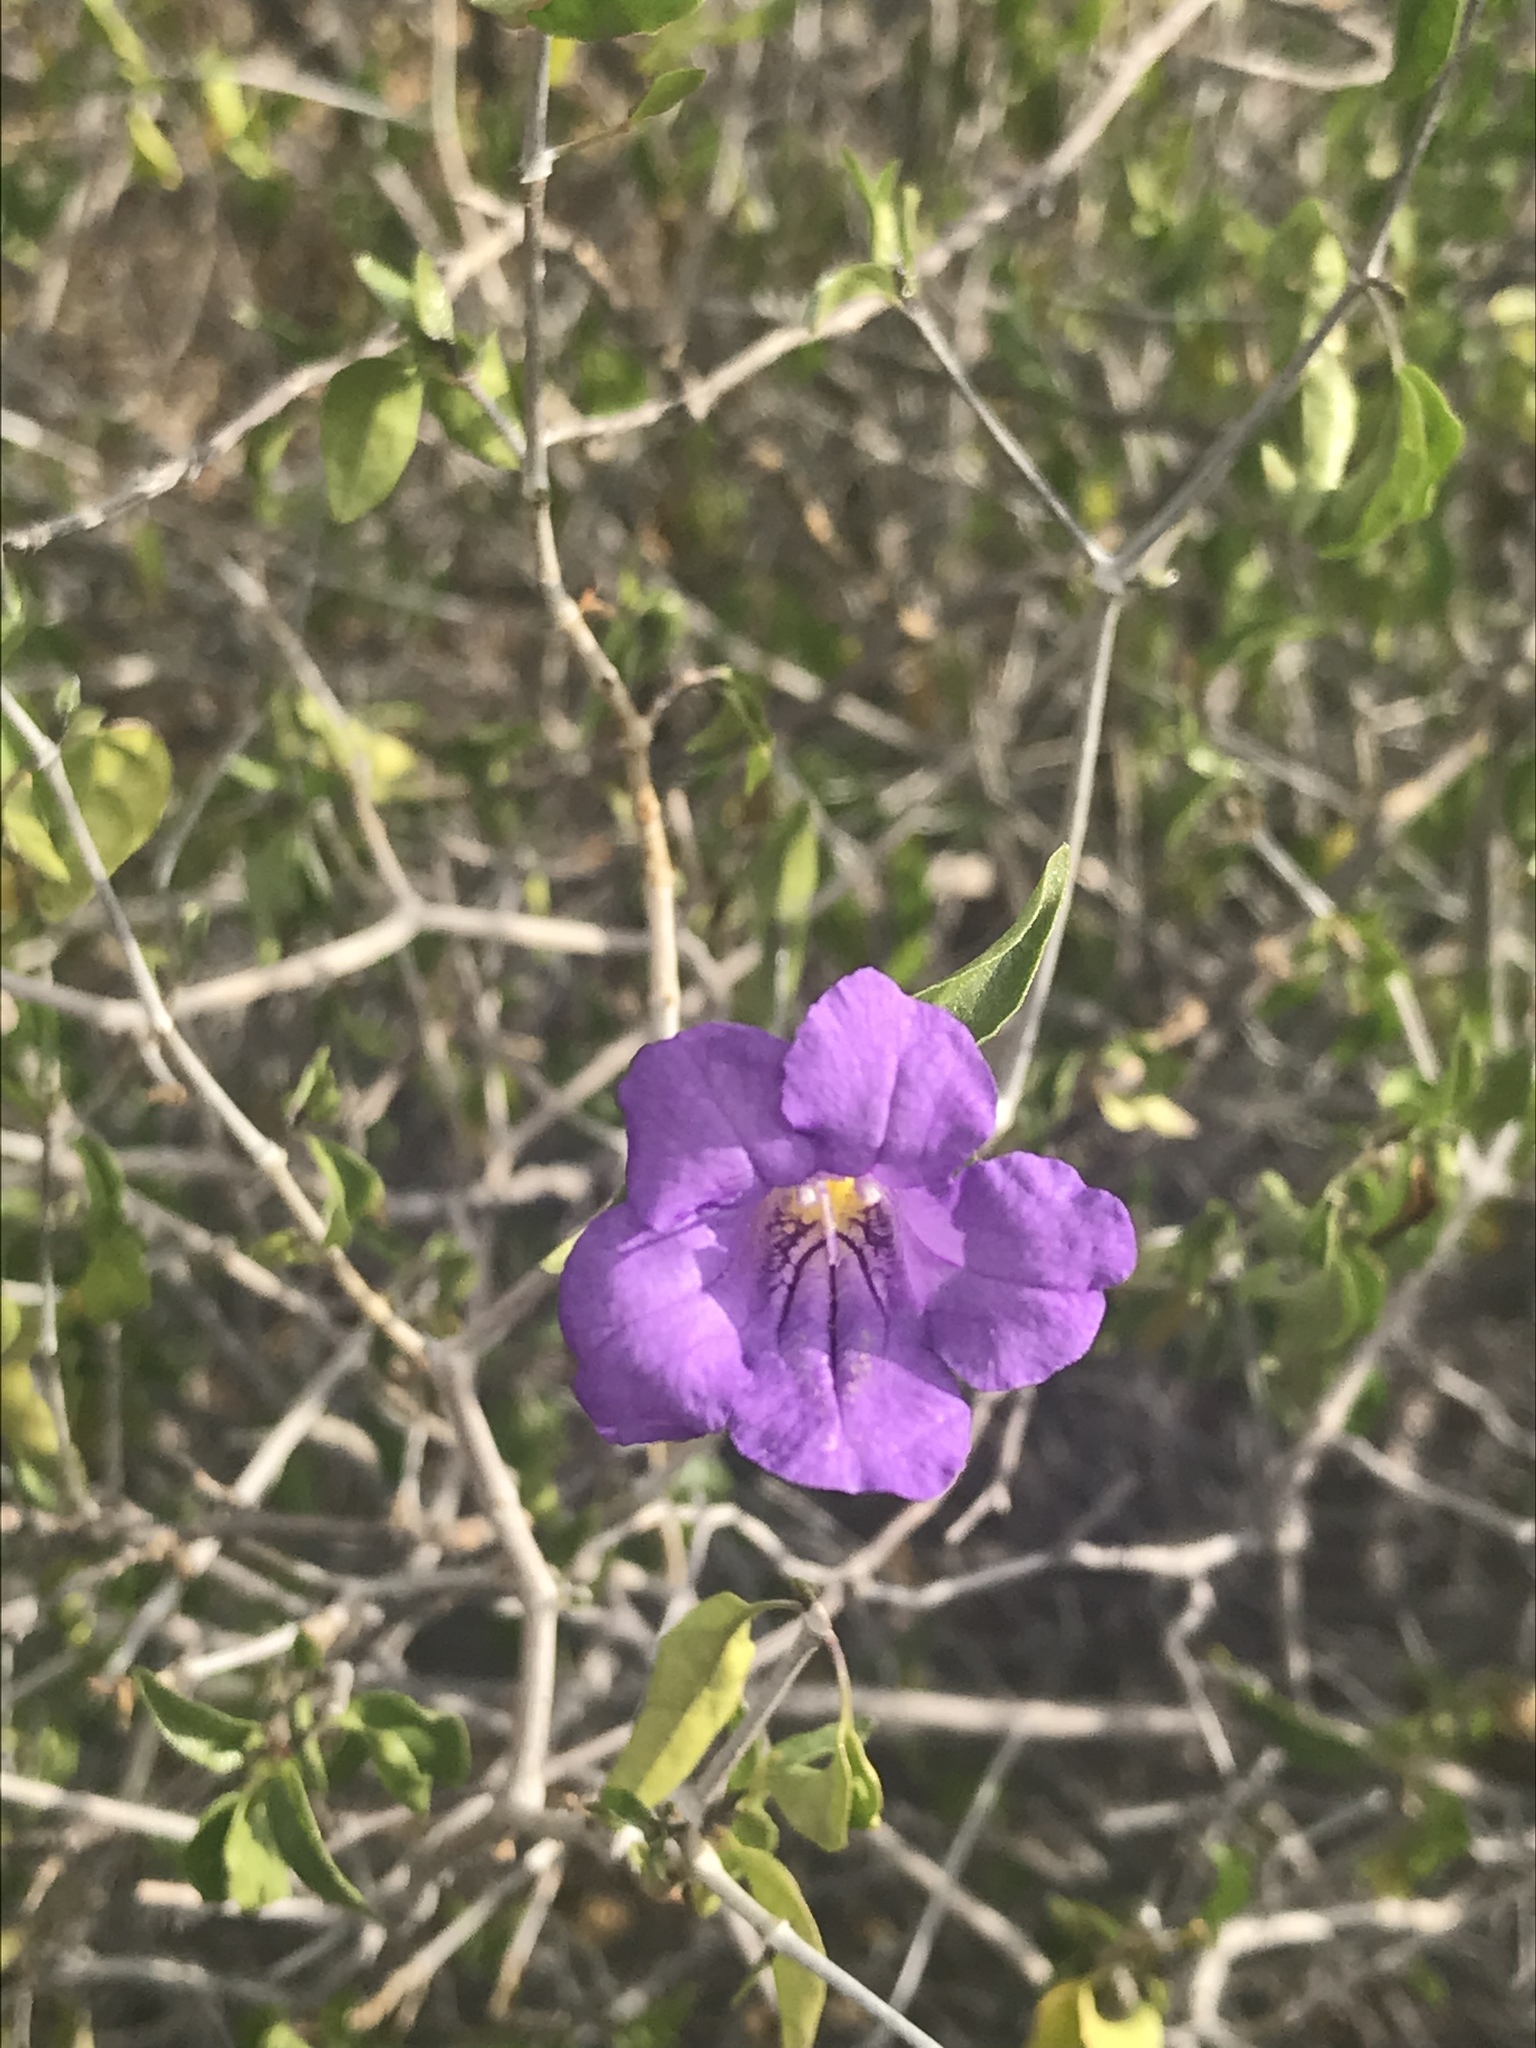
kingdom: Plantae
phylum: Tracheophyta
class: Magnoliopsida
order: Lamiales
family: Acanthaceae
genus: Ruellia
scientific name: Ruellia californica
